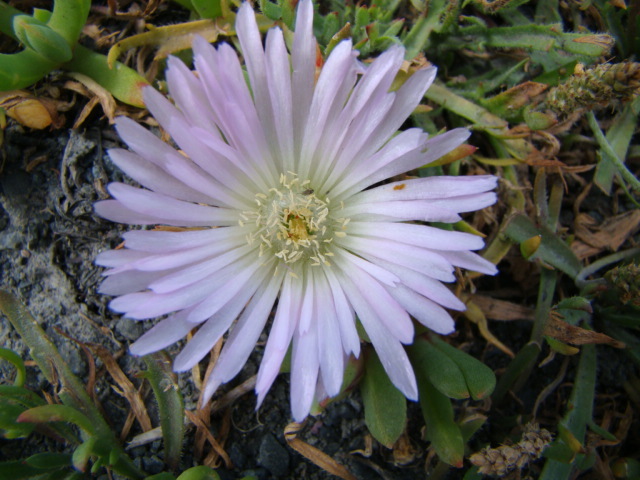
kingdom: Plantae
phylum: Tracheophyta
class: Magnoliopsida
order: Caryophyllales
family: Aizoaceae
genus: Disphyma
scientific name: Disphyma australe
